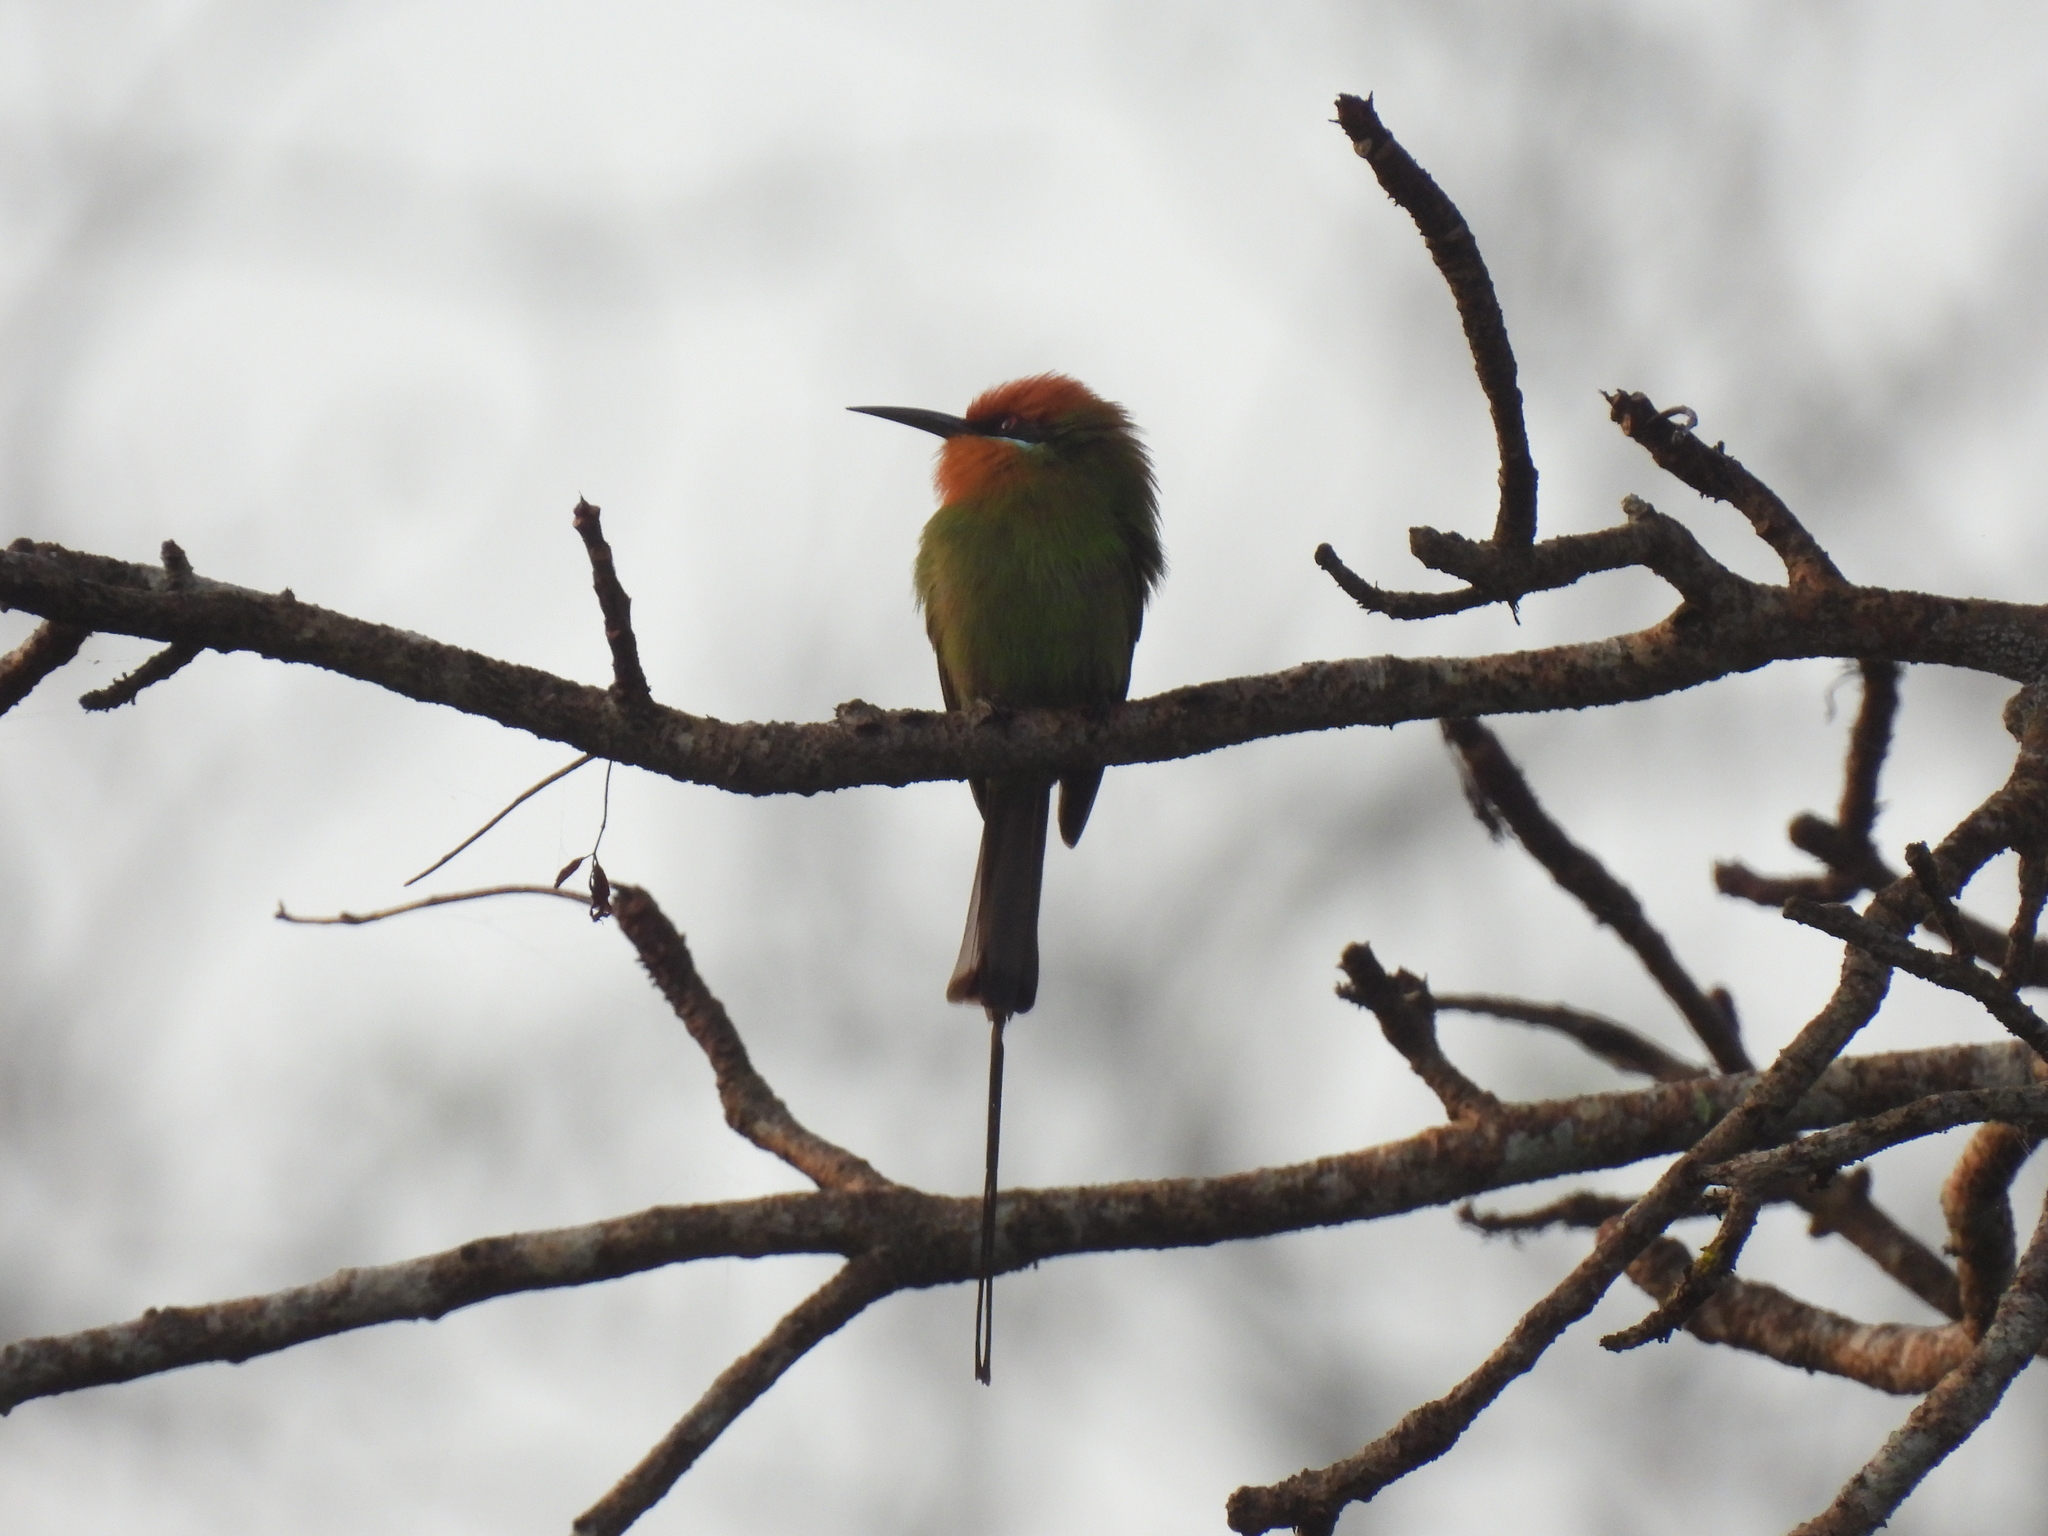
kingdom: Animalia
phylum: Chordata
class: Aves
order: Coraciiformes
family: Meropidae
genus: Merops
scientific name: Merops boehmi
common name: Böhm's bee-eater
